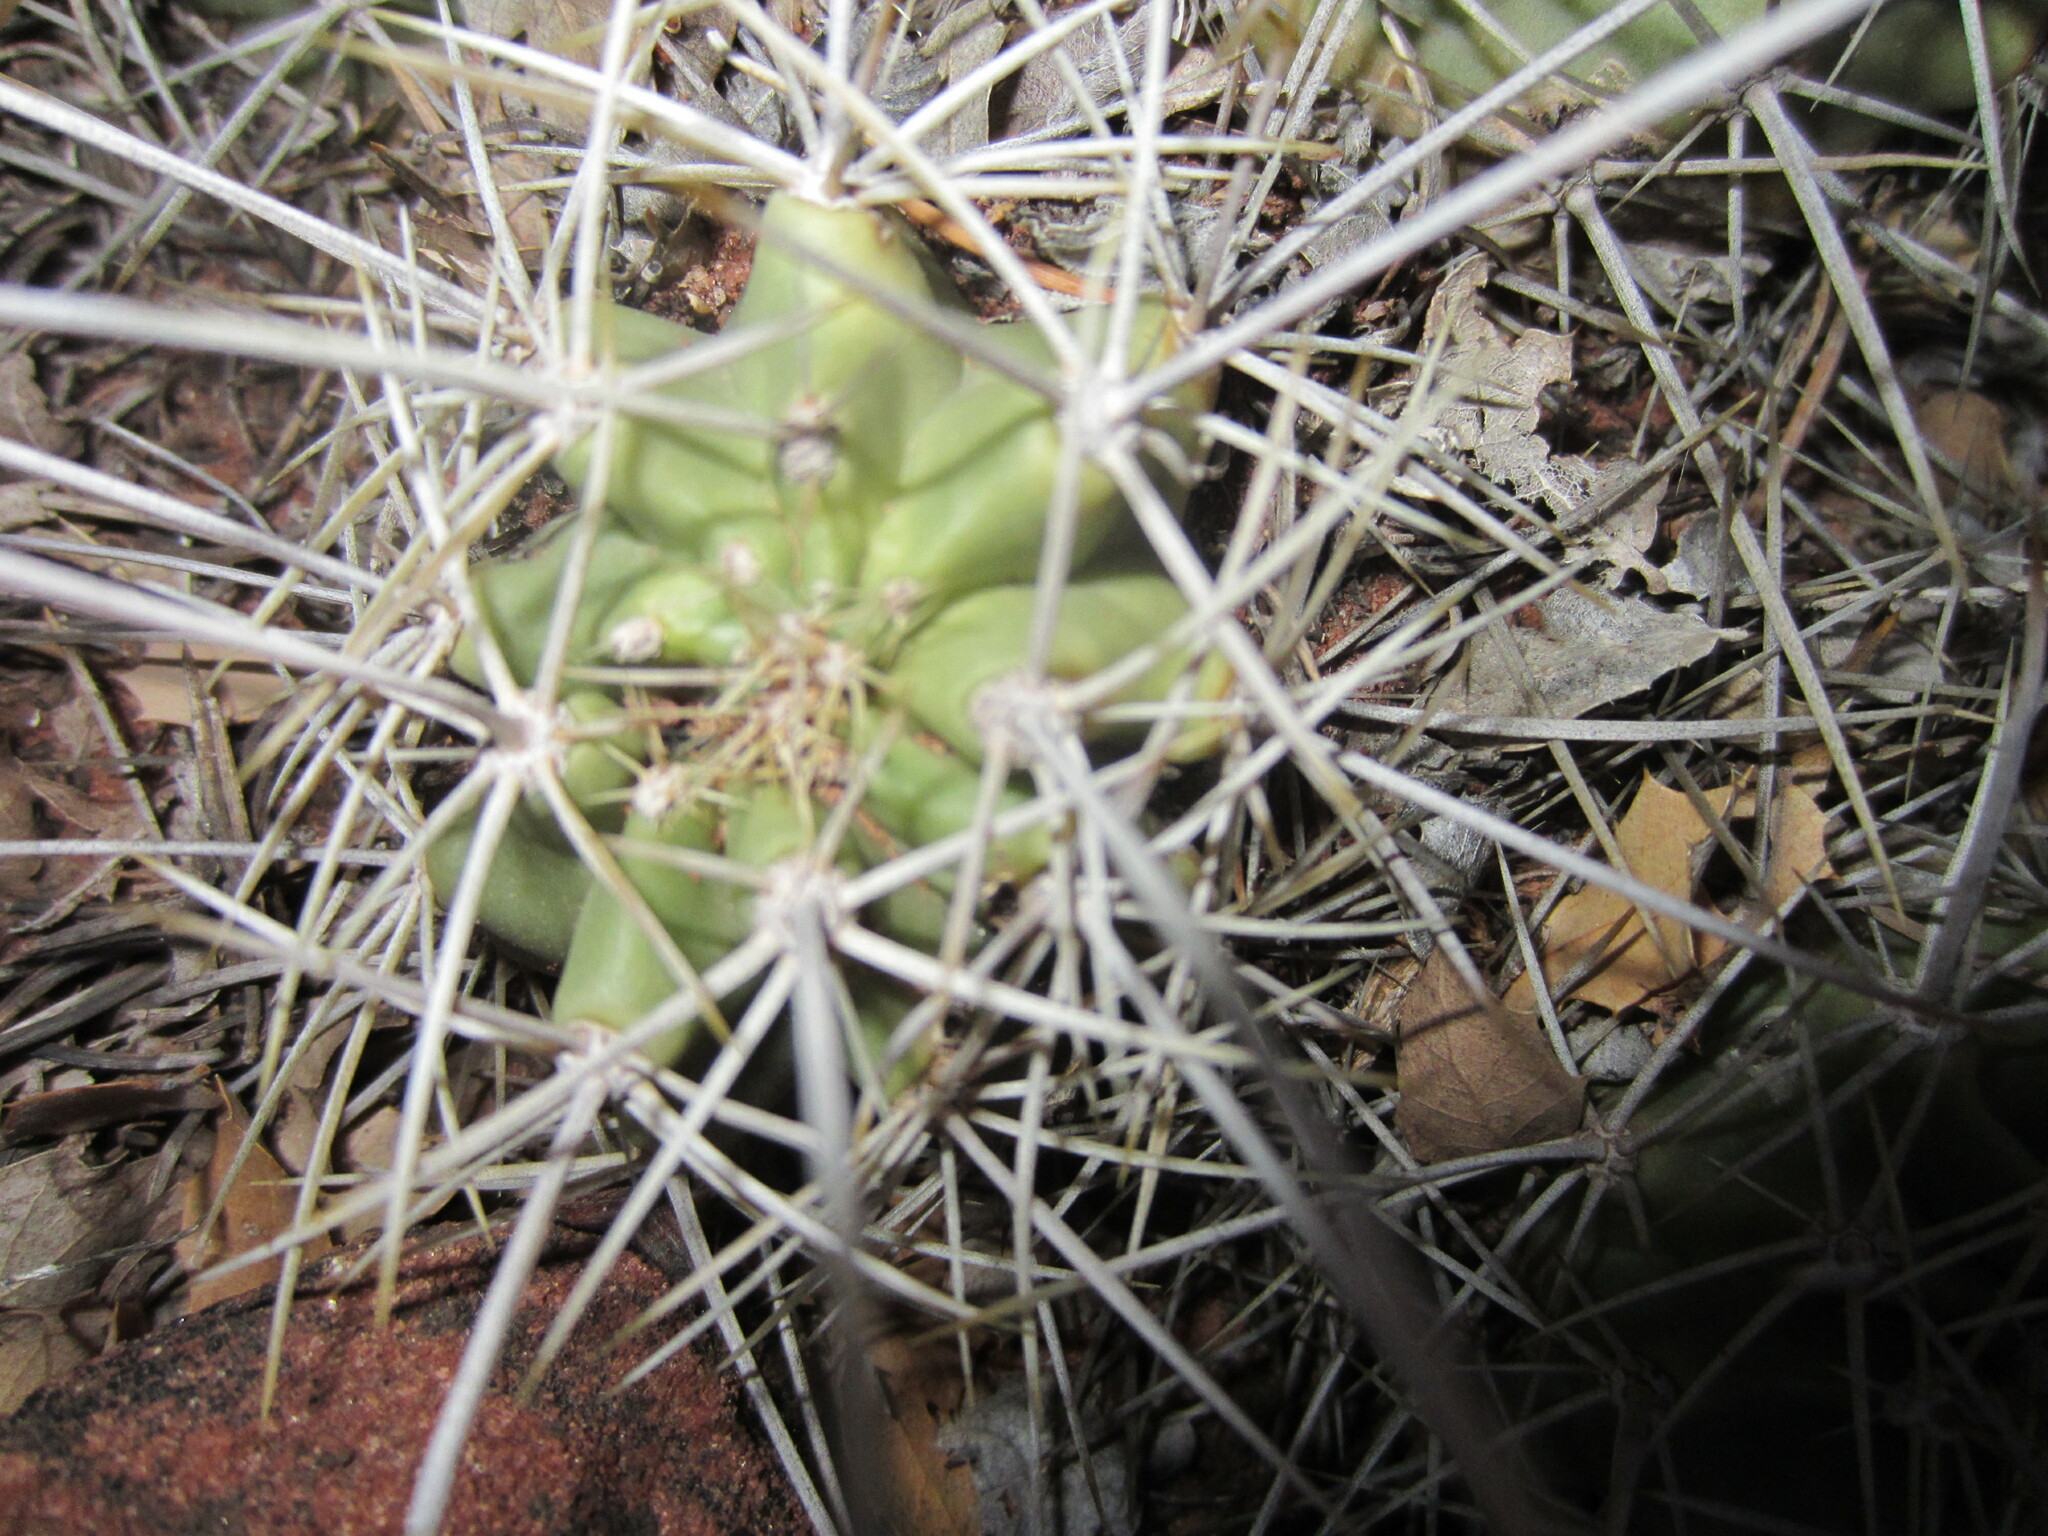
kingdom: Plantae
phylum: Tracheophyta
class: Magnoliopsida
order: Caryophyllales
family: Cactaceae
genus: Echinocereus
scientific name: Echinocereus triglochidiatus
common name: Claretcup hedgehog
